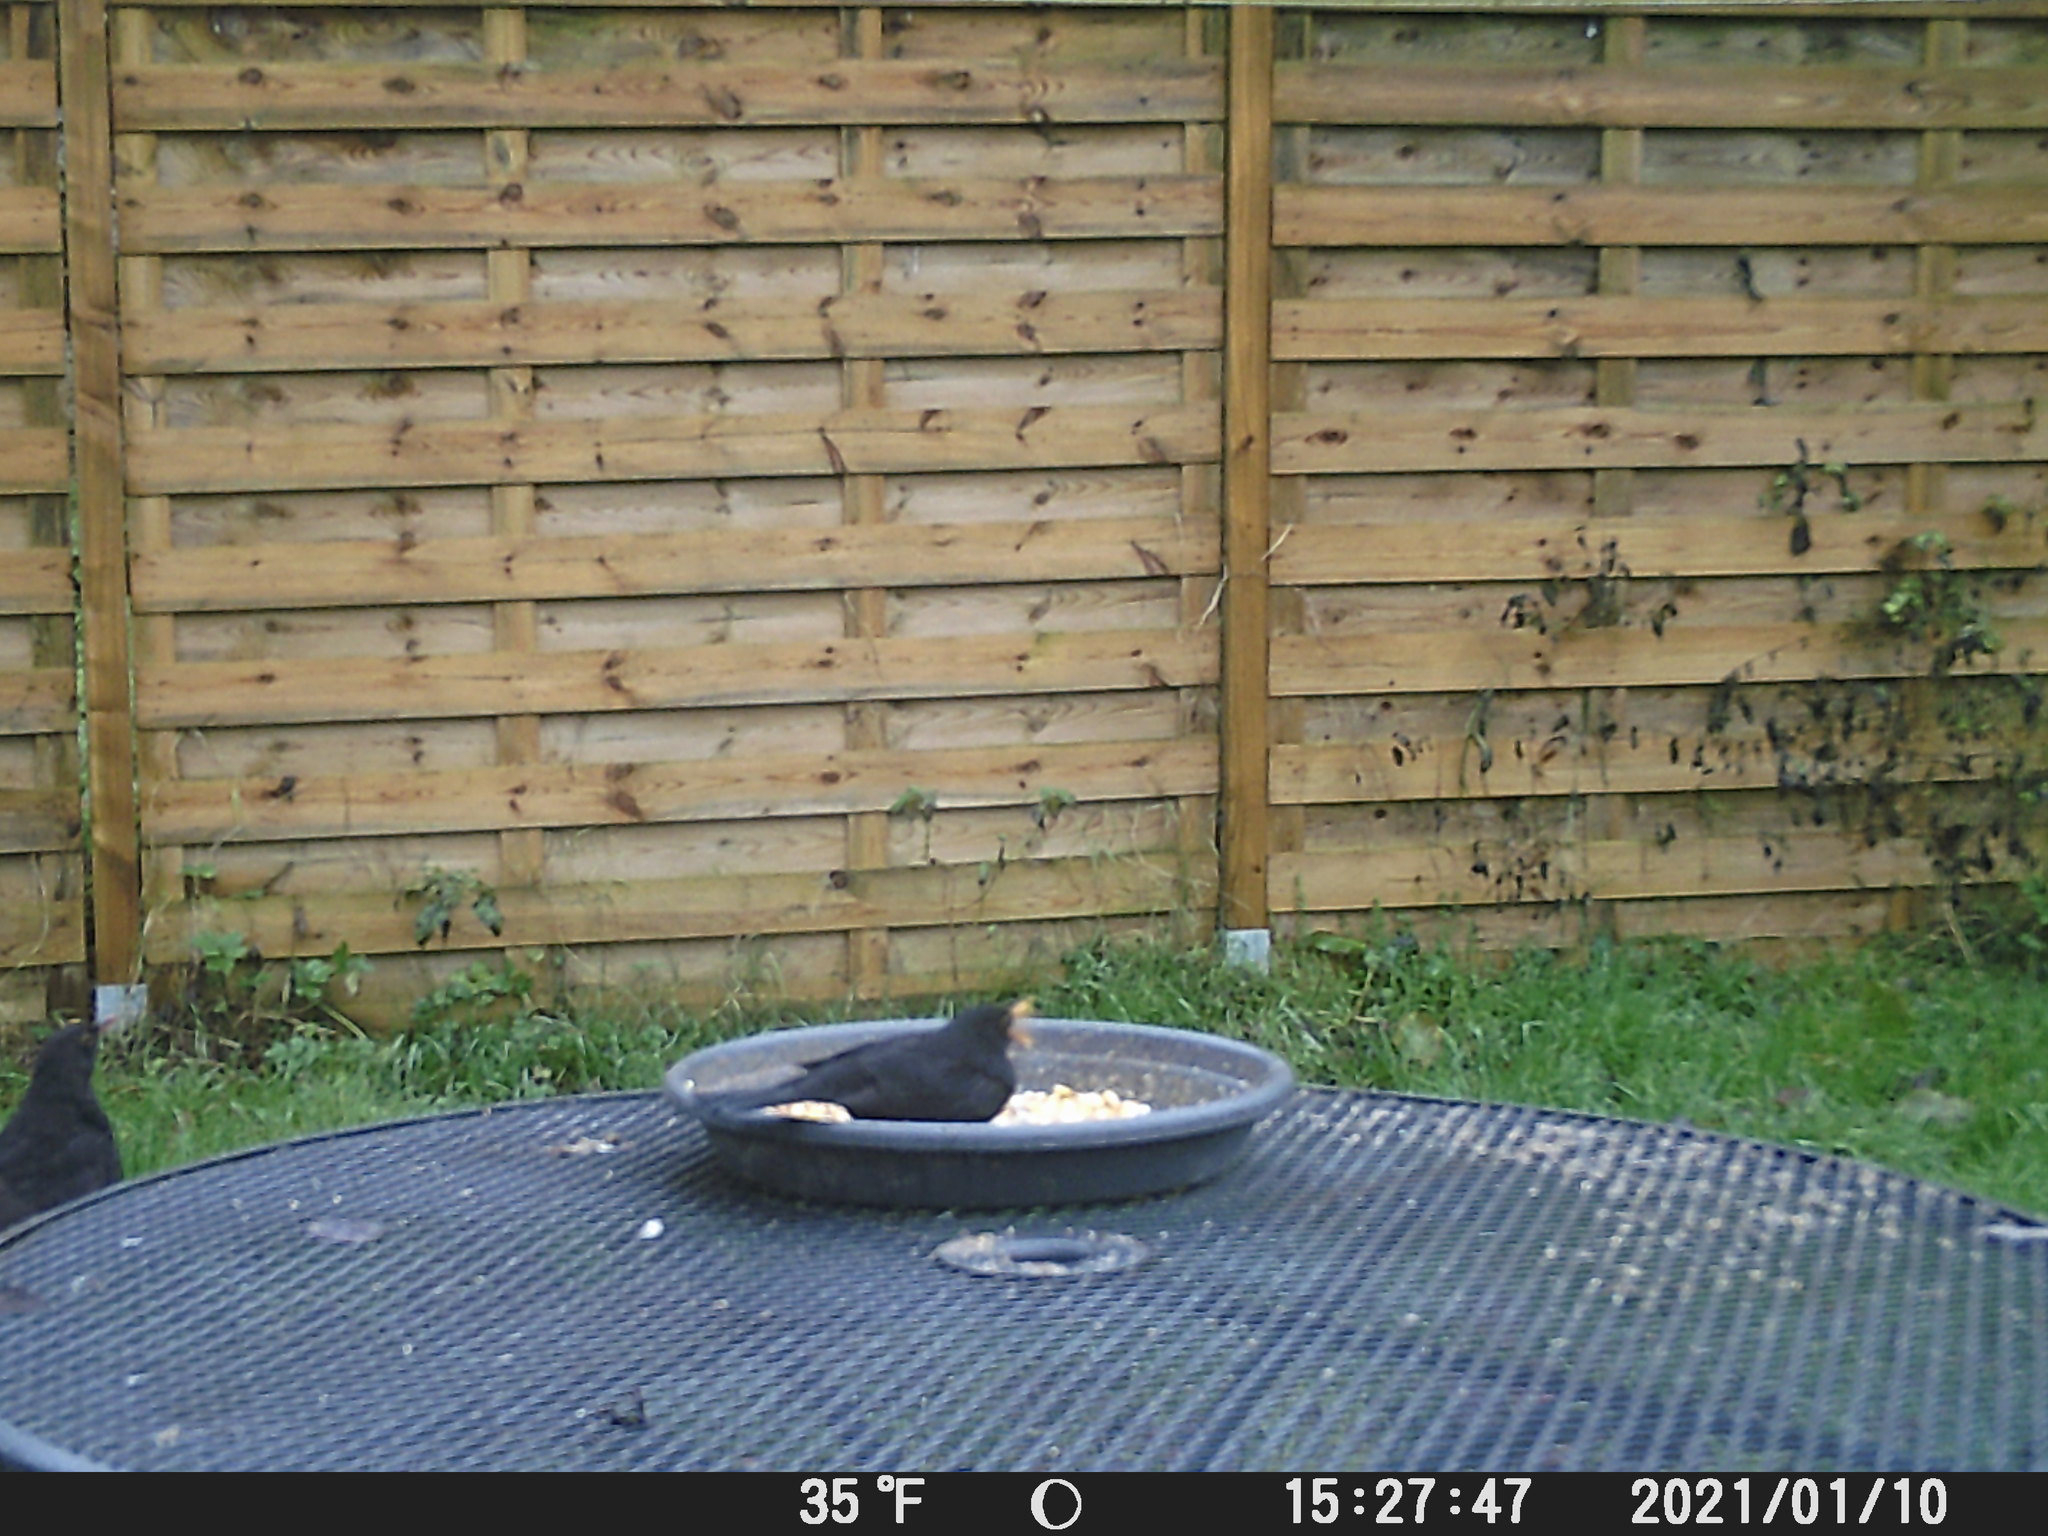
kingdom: Animalia
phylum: Chordata
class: Aves
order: Passeriformes
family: Turdidae
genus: Turdus
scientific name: Turdus merula
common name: Common blackbird
